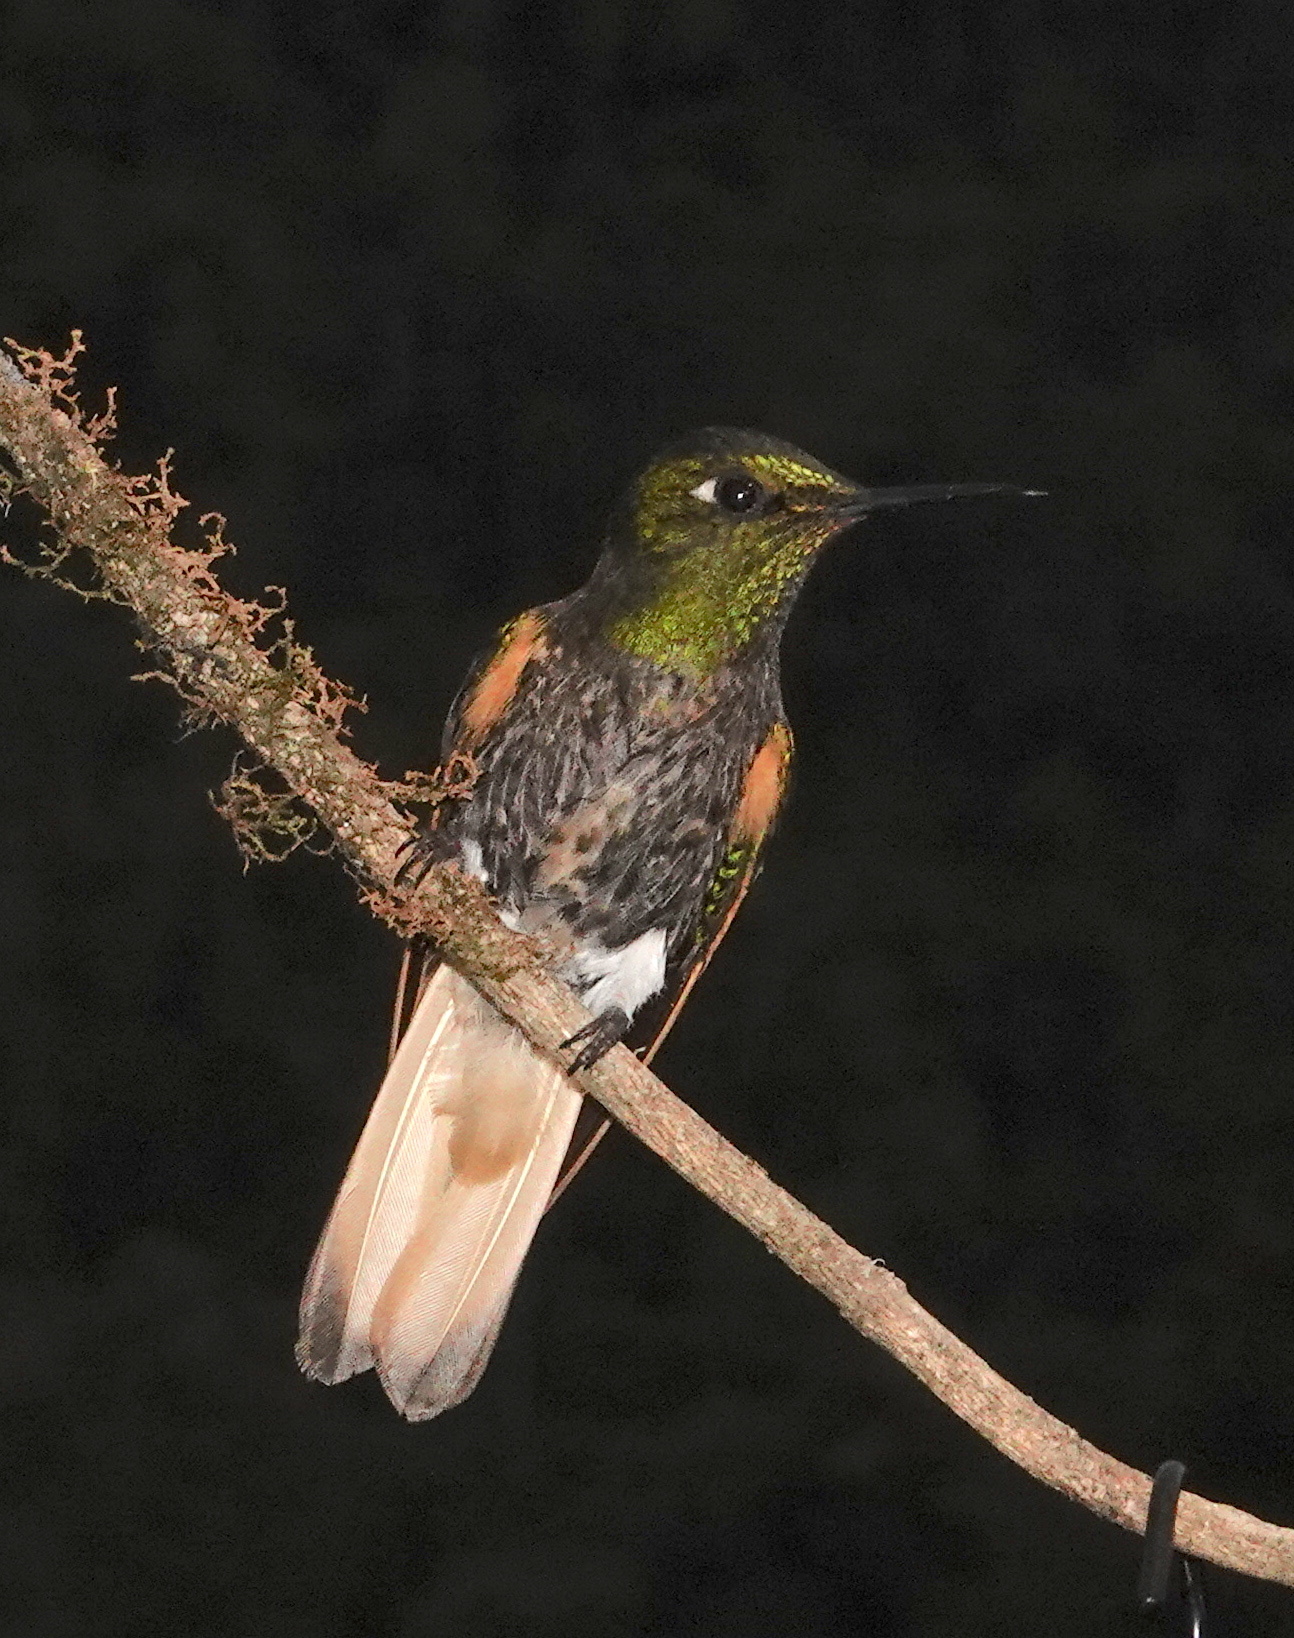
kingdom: Animalia
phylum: Chordata
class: Aves
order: Apodiformes
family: Trochilidae
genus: Boissonneaua
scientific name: Boissonneaua flavescens
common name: Buff-tailed coronet
